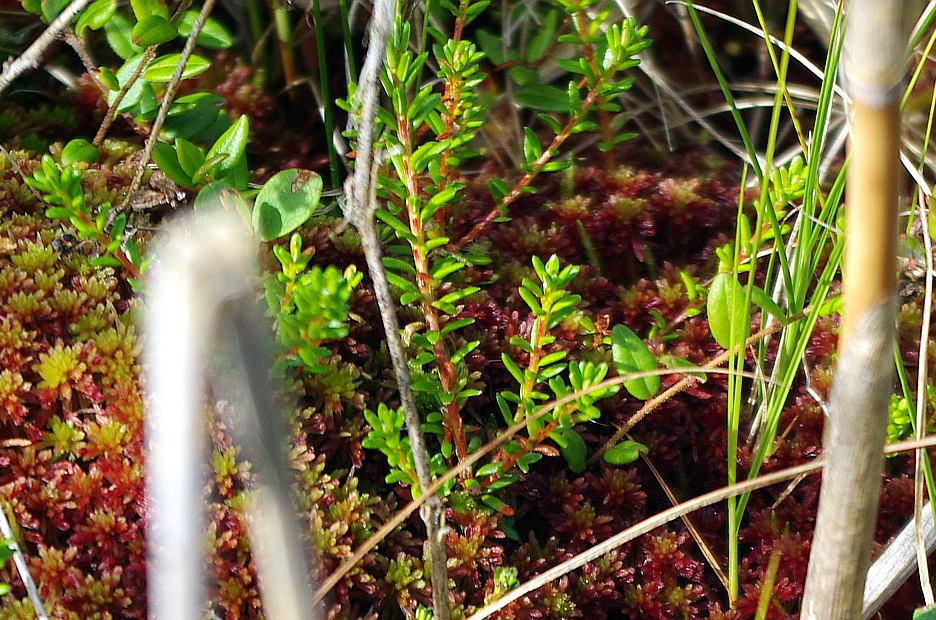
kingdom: Plantae
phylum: Tracheophyta
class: Magnoliopsida
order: Ericales
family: Ericaceae
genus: Empetrum
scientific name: Empetrum nigrum
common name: Black crowberry
